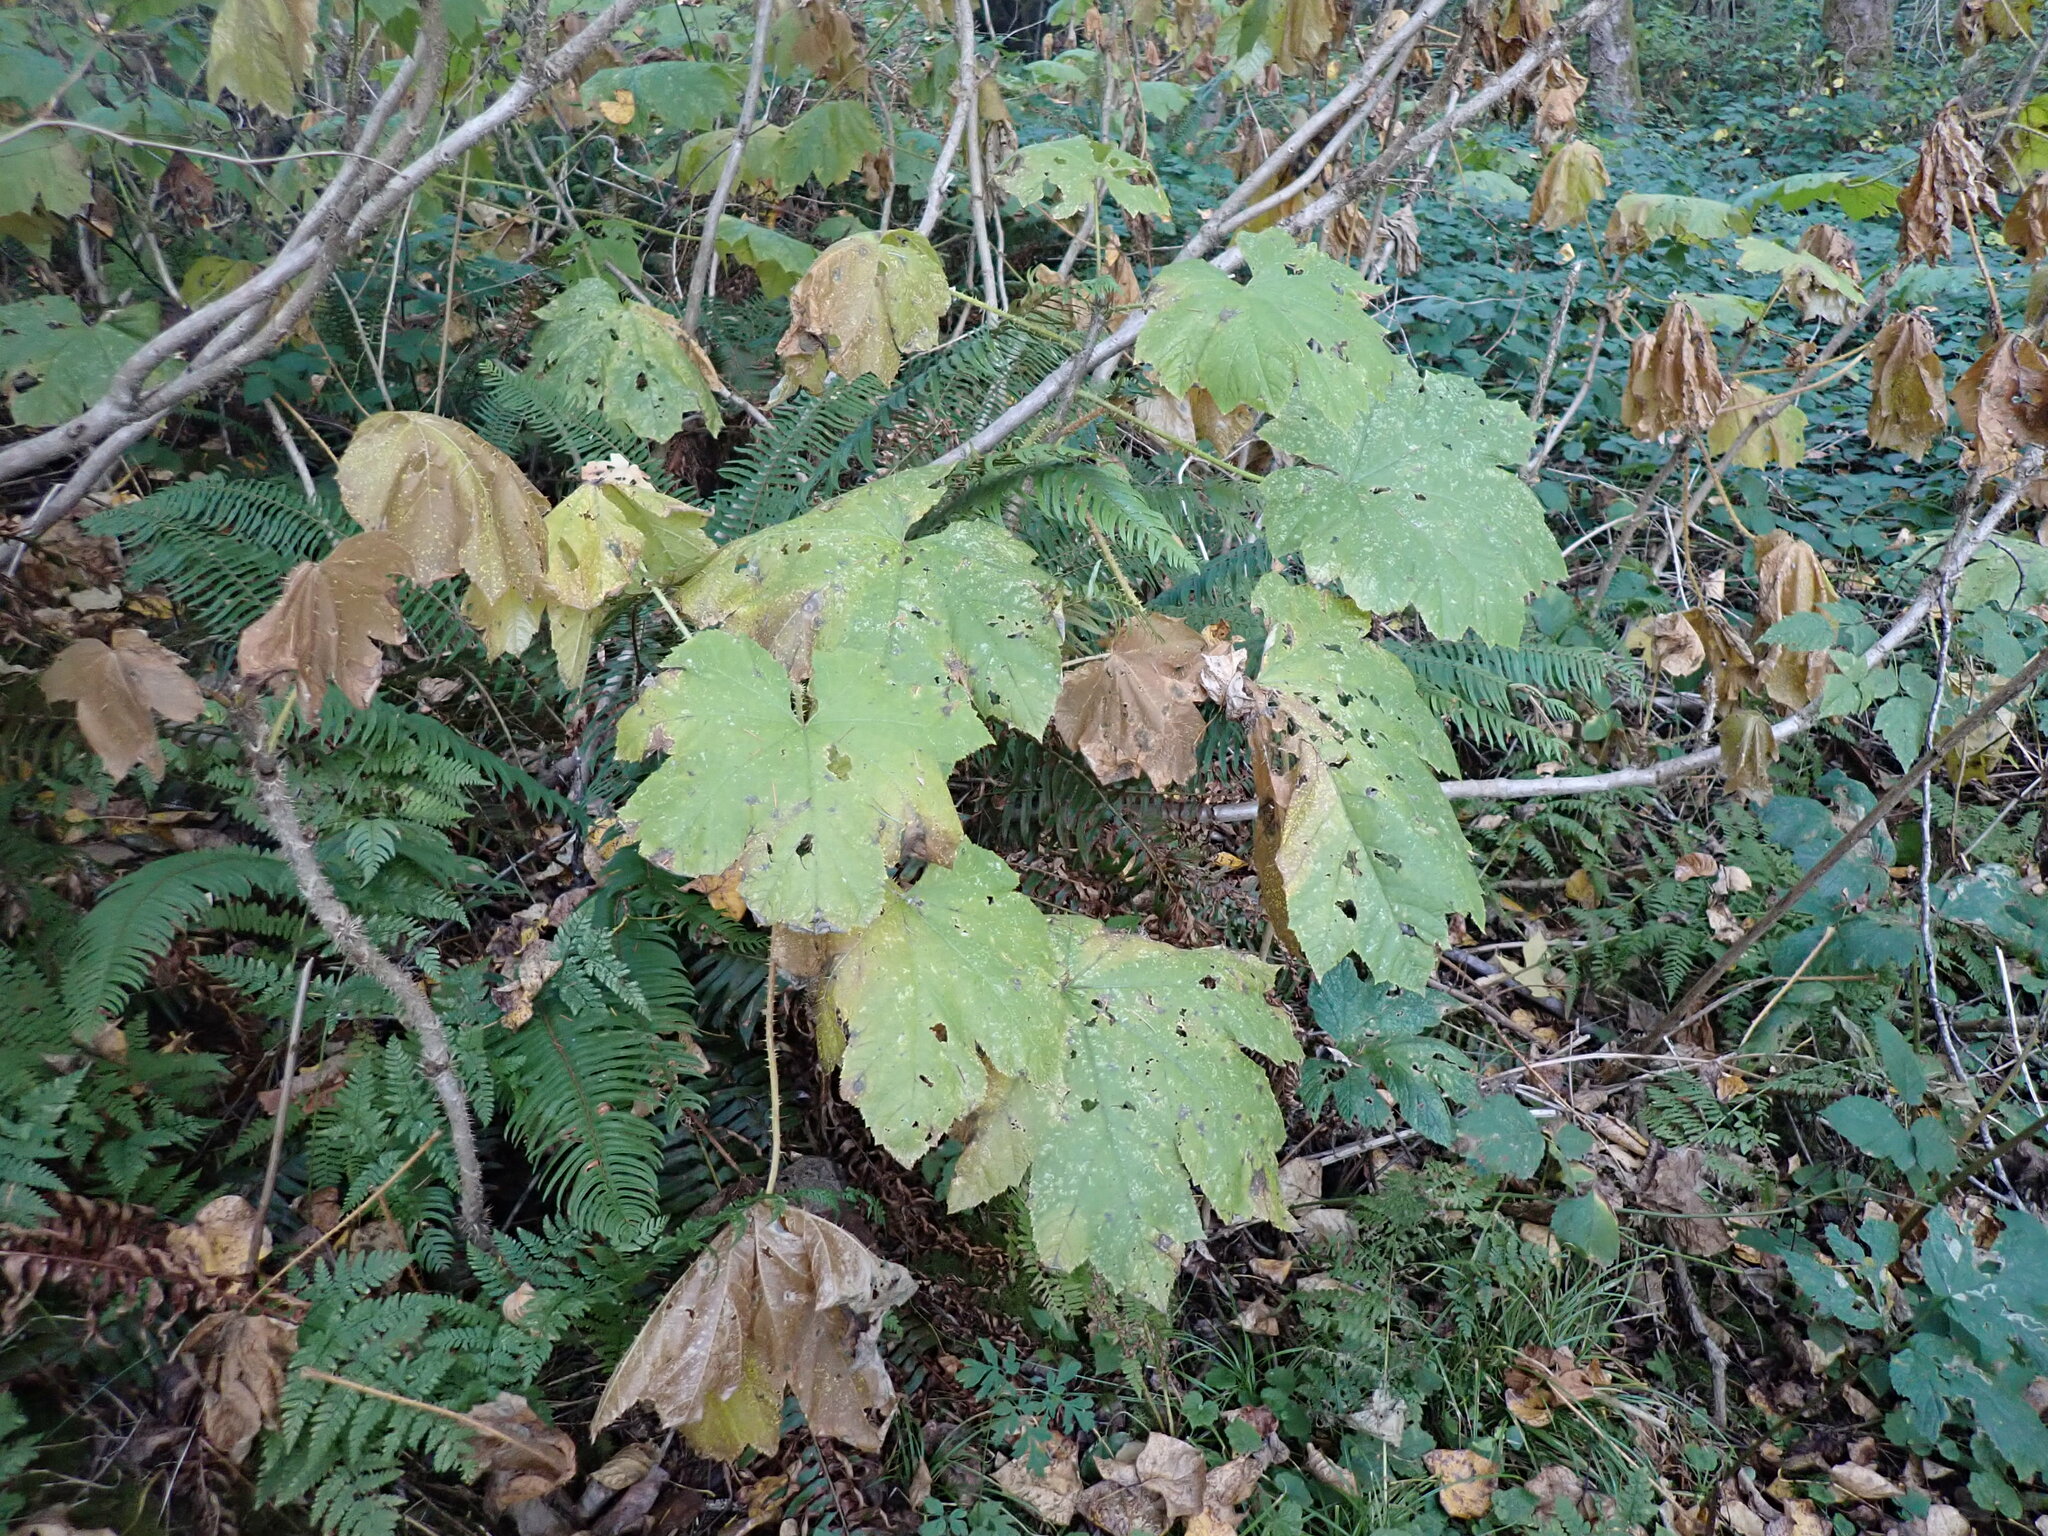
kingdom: Plantae
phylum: Tracheophyta
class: Magnoliopsida
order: Apiales
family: Araliaceae
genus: Oplopanax
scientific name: Oplopanax horridus
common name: Devil's walking-stick
